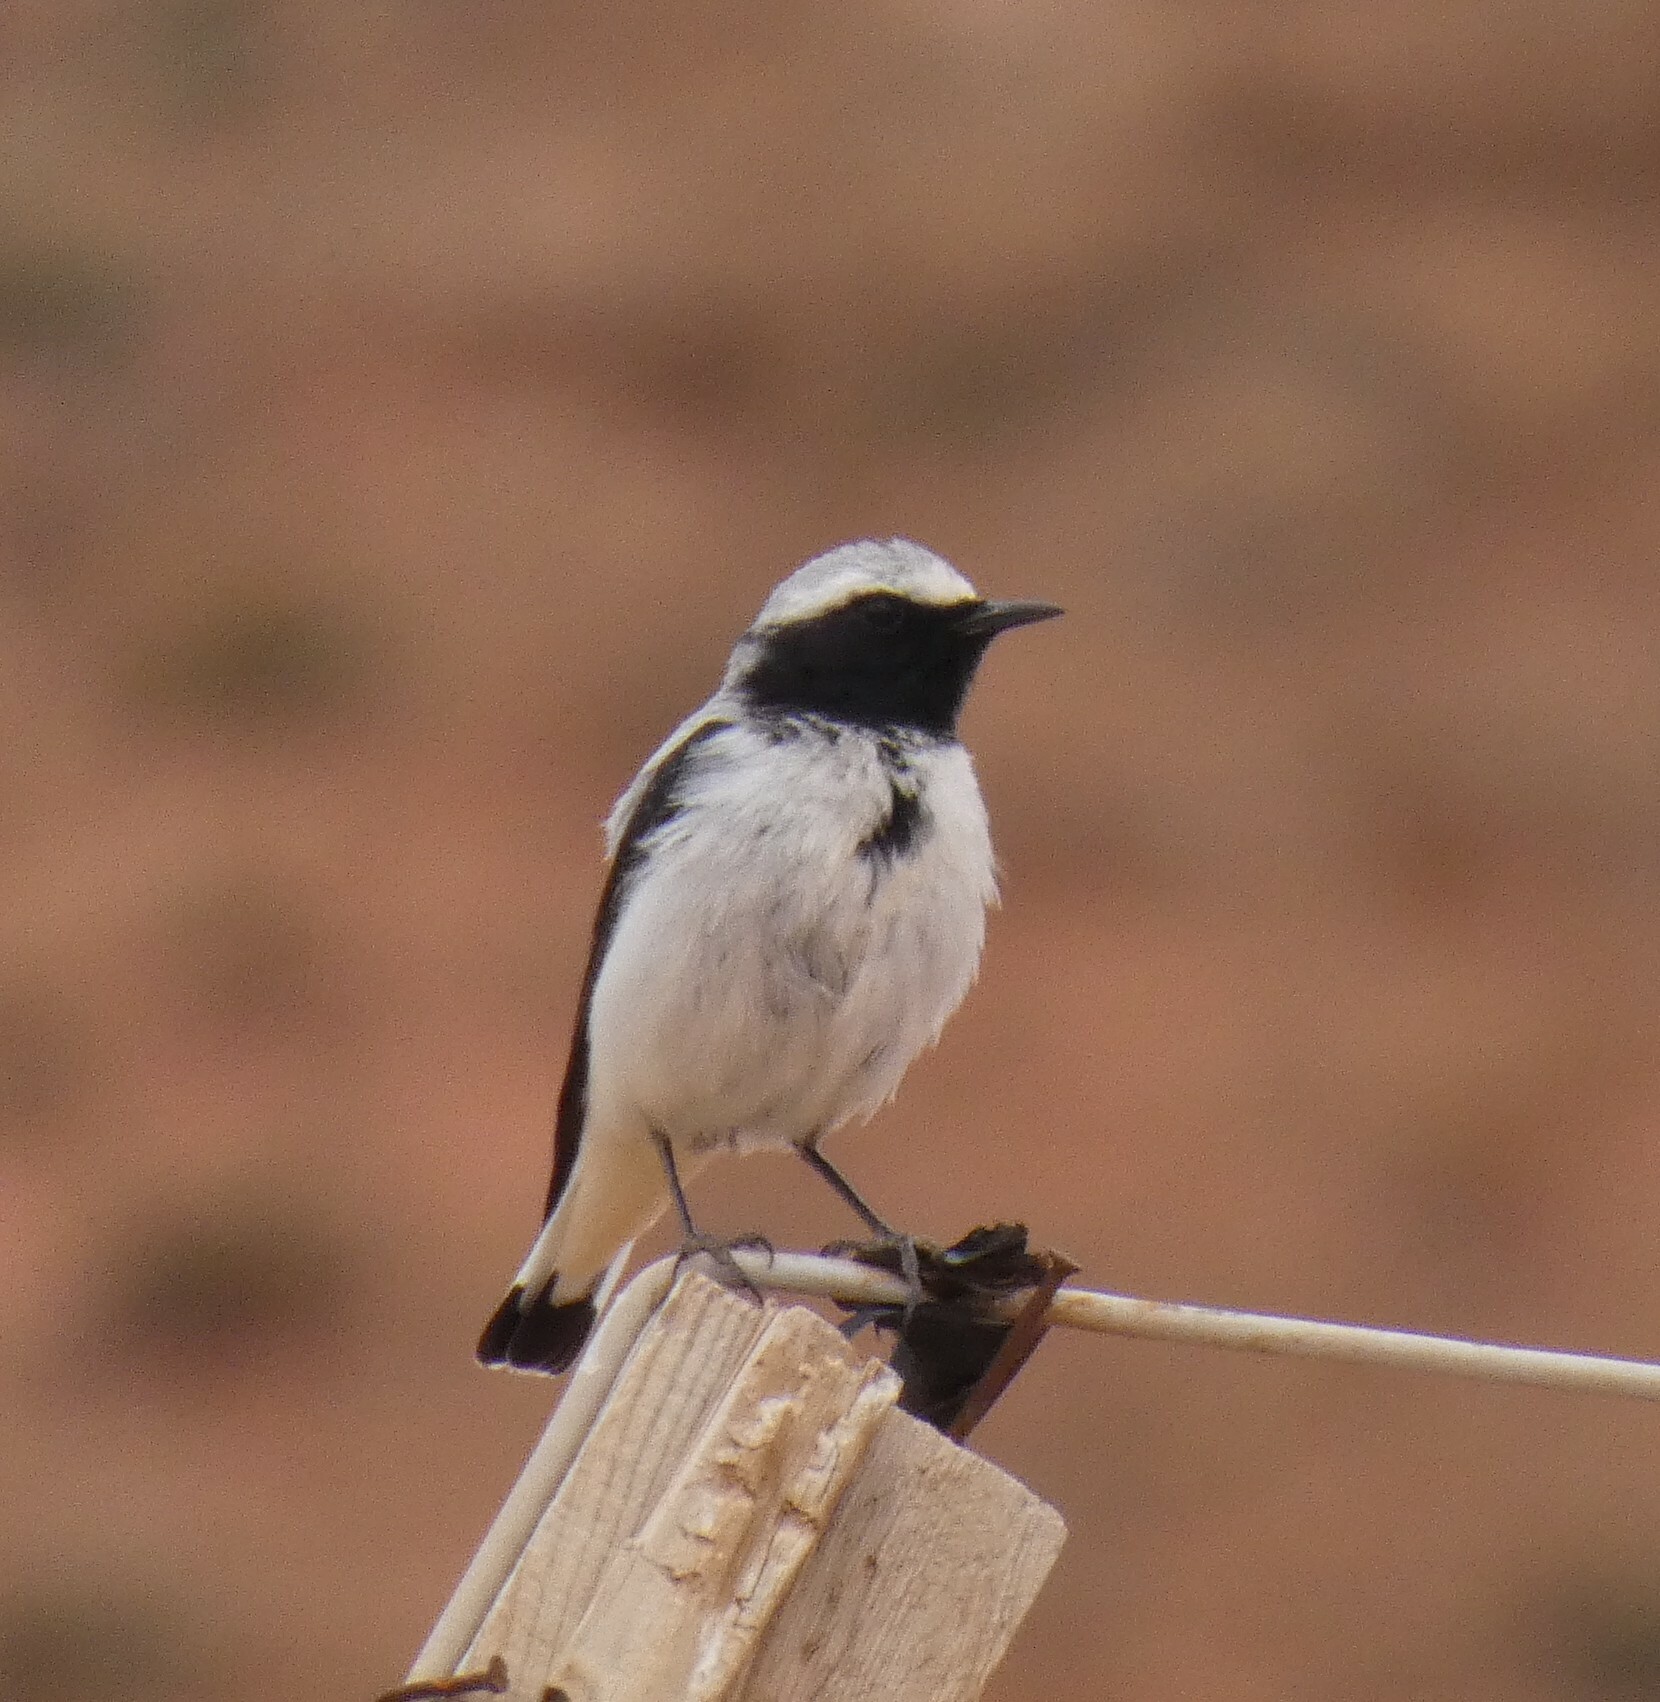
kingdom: Animalia
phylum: Chordata
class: Aves
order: Passeriformes
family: Muscicapidae
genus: Oenanthe
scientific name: Oenanthe oenanthe
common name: Northern wheatear
